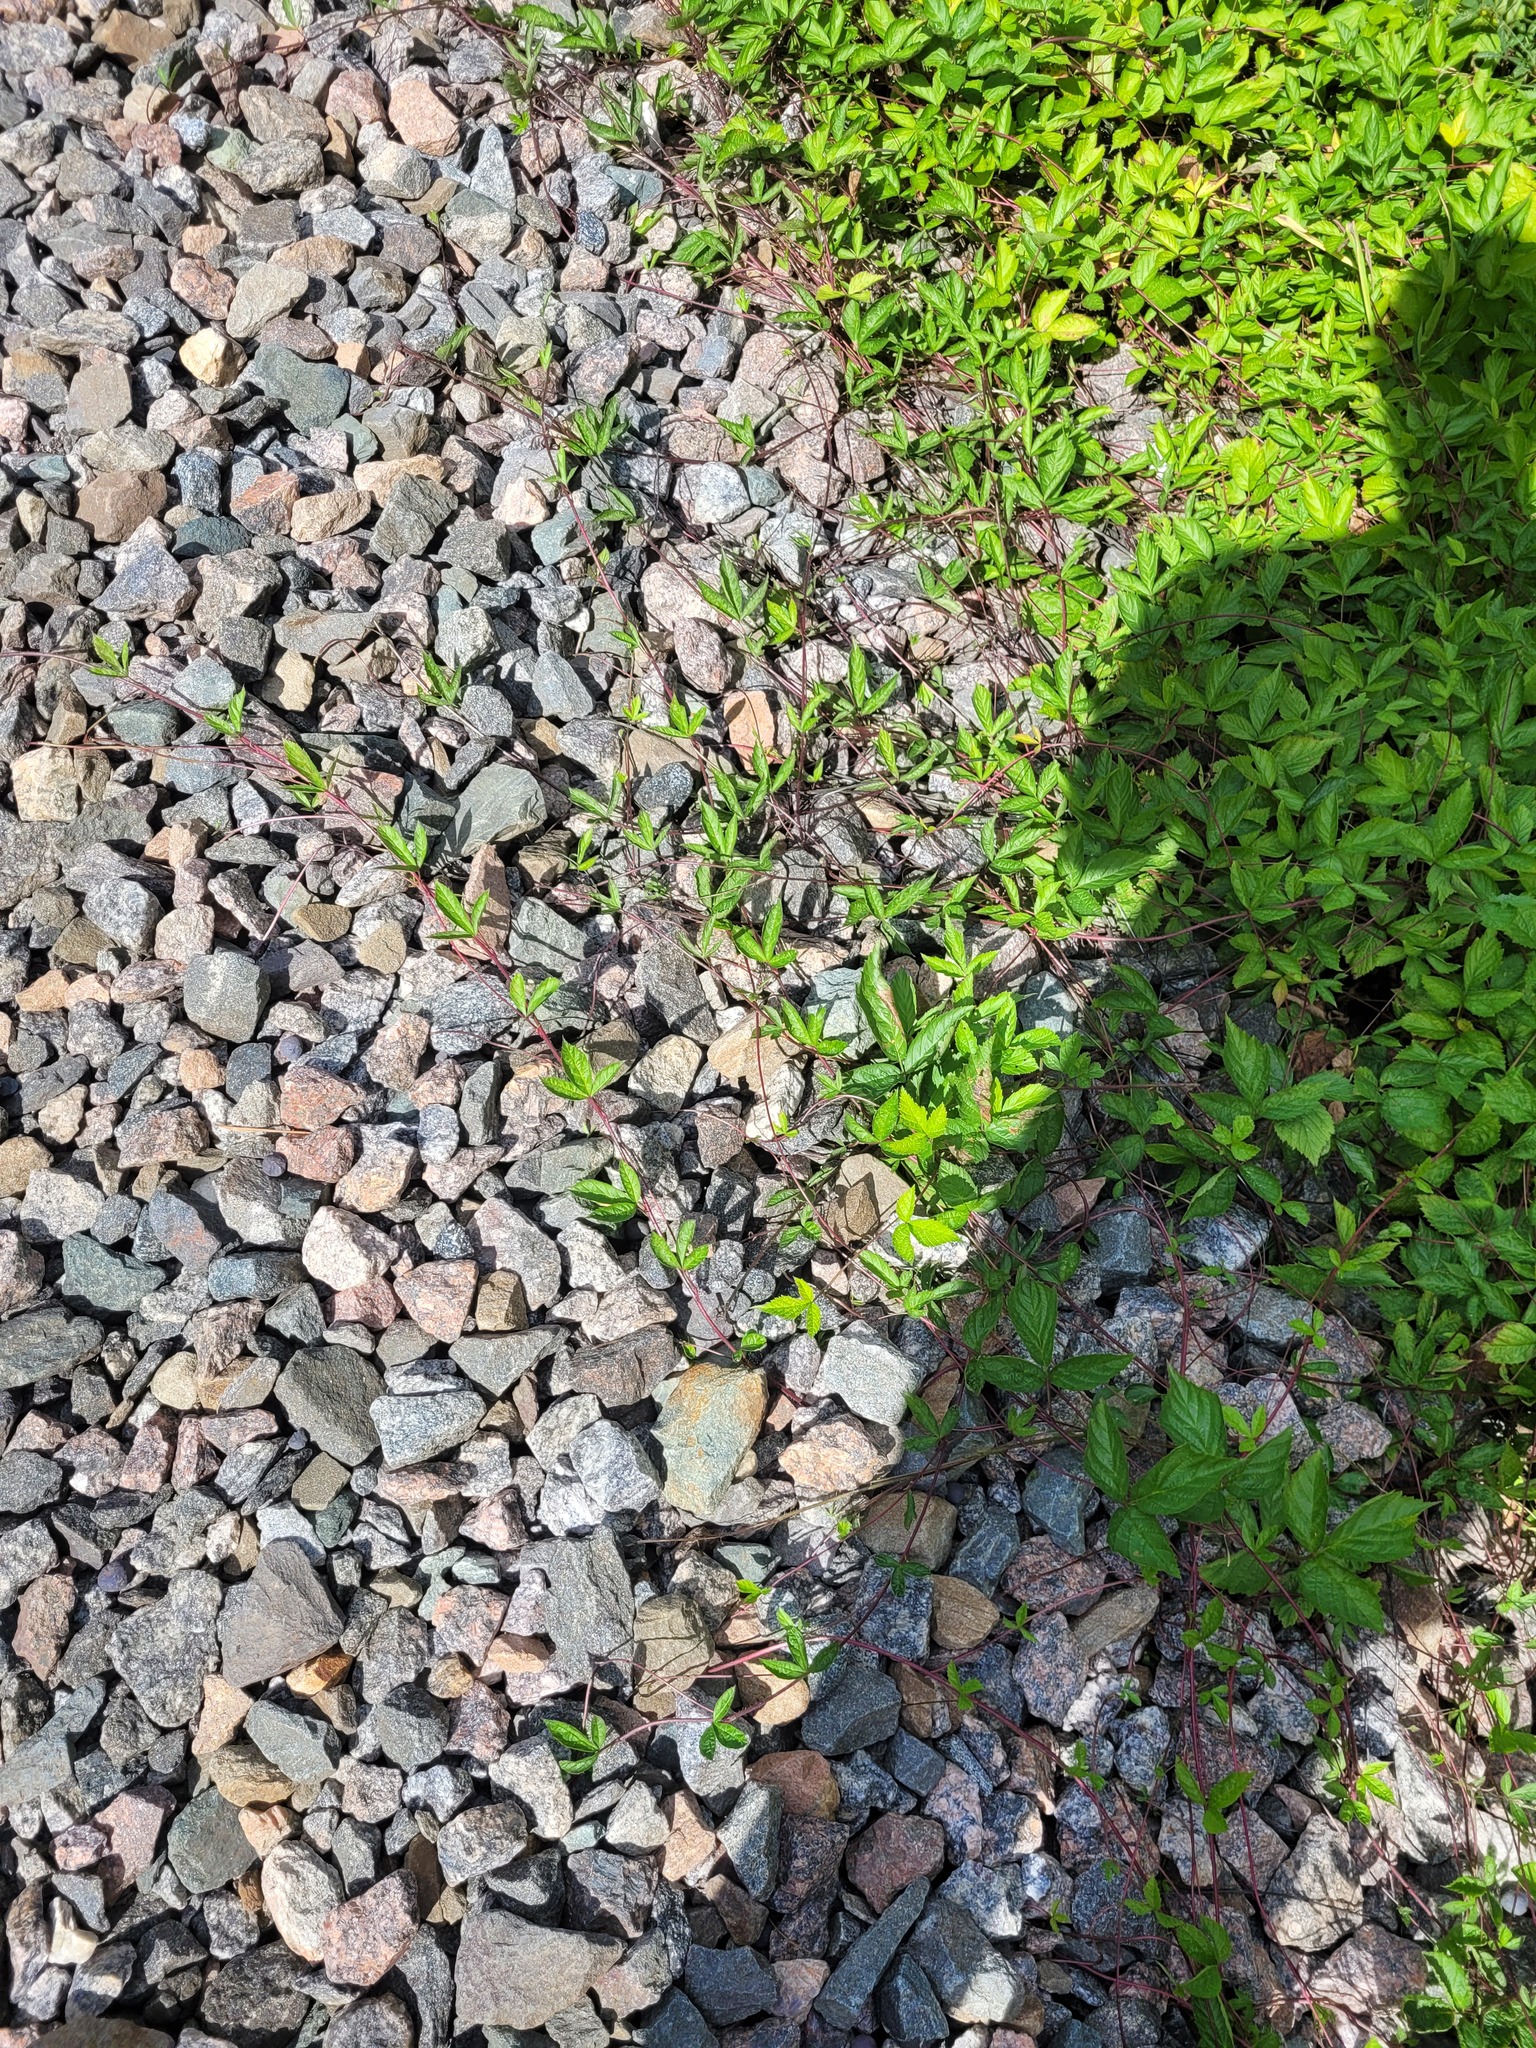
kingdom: Plantae
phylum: Tracheophyta
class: Magnoliopsida
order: Rosales
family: Rosaceae
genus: Rubus
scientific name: Rubus saxatilis
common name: Stone bramble
